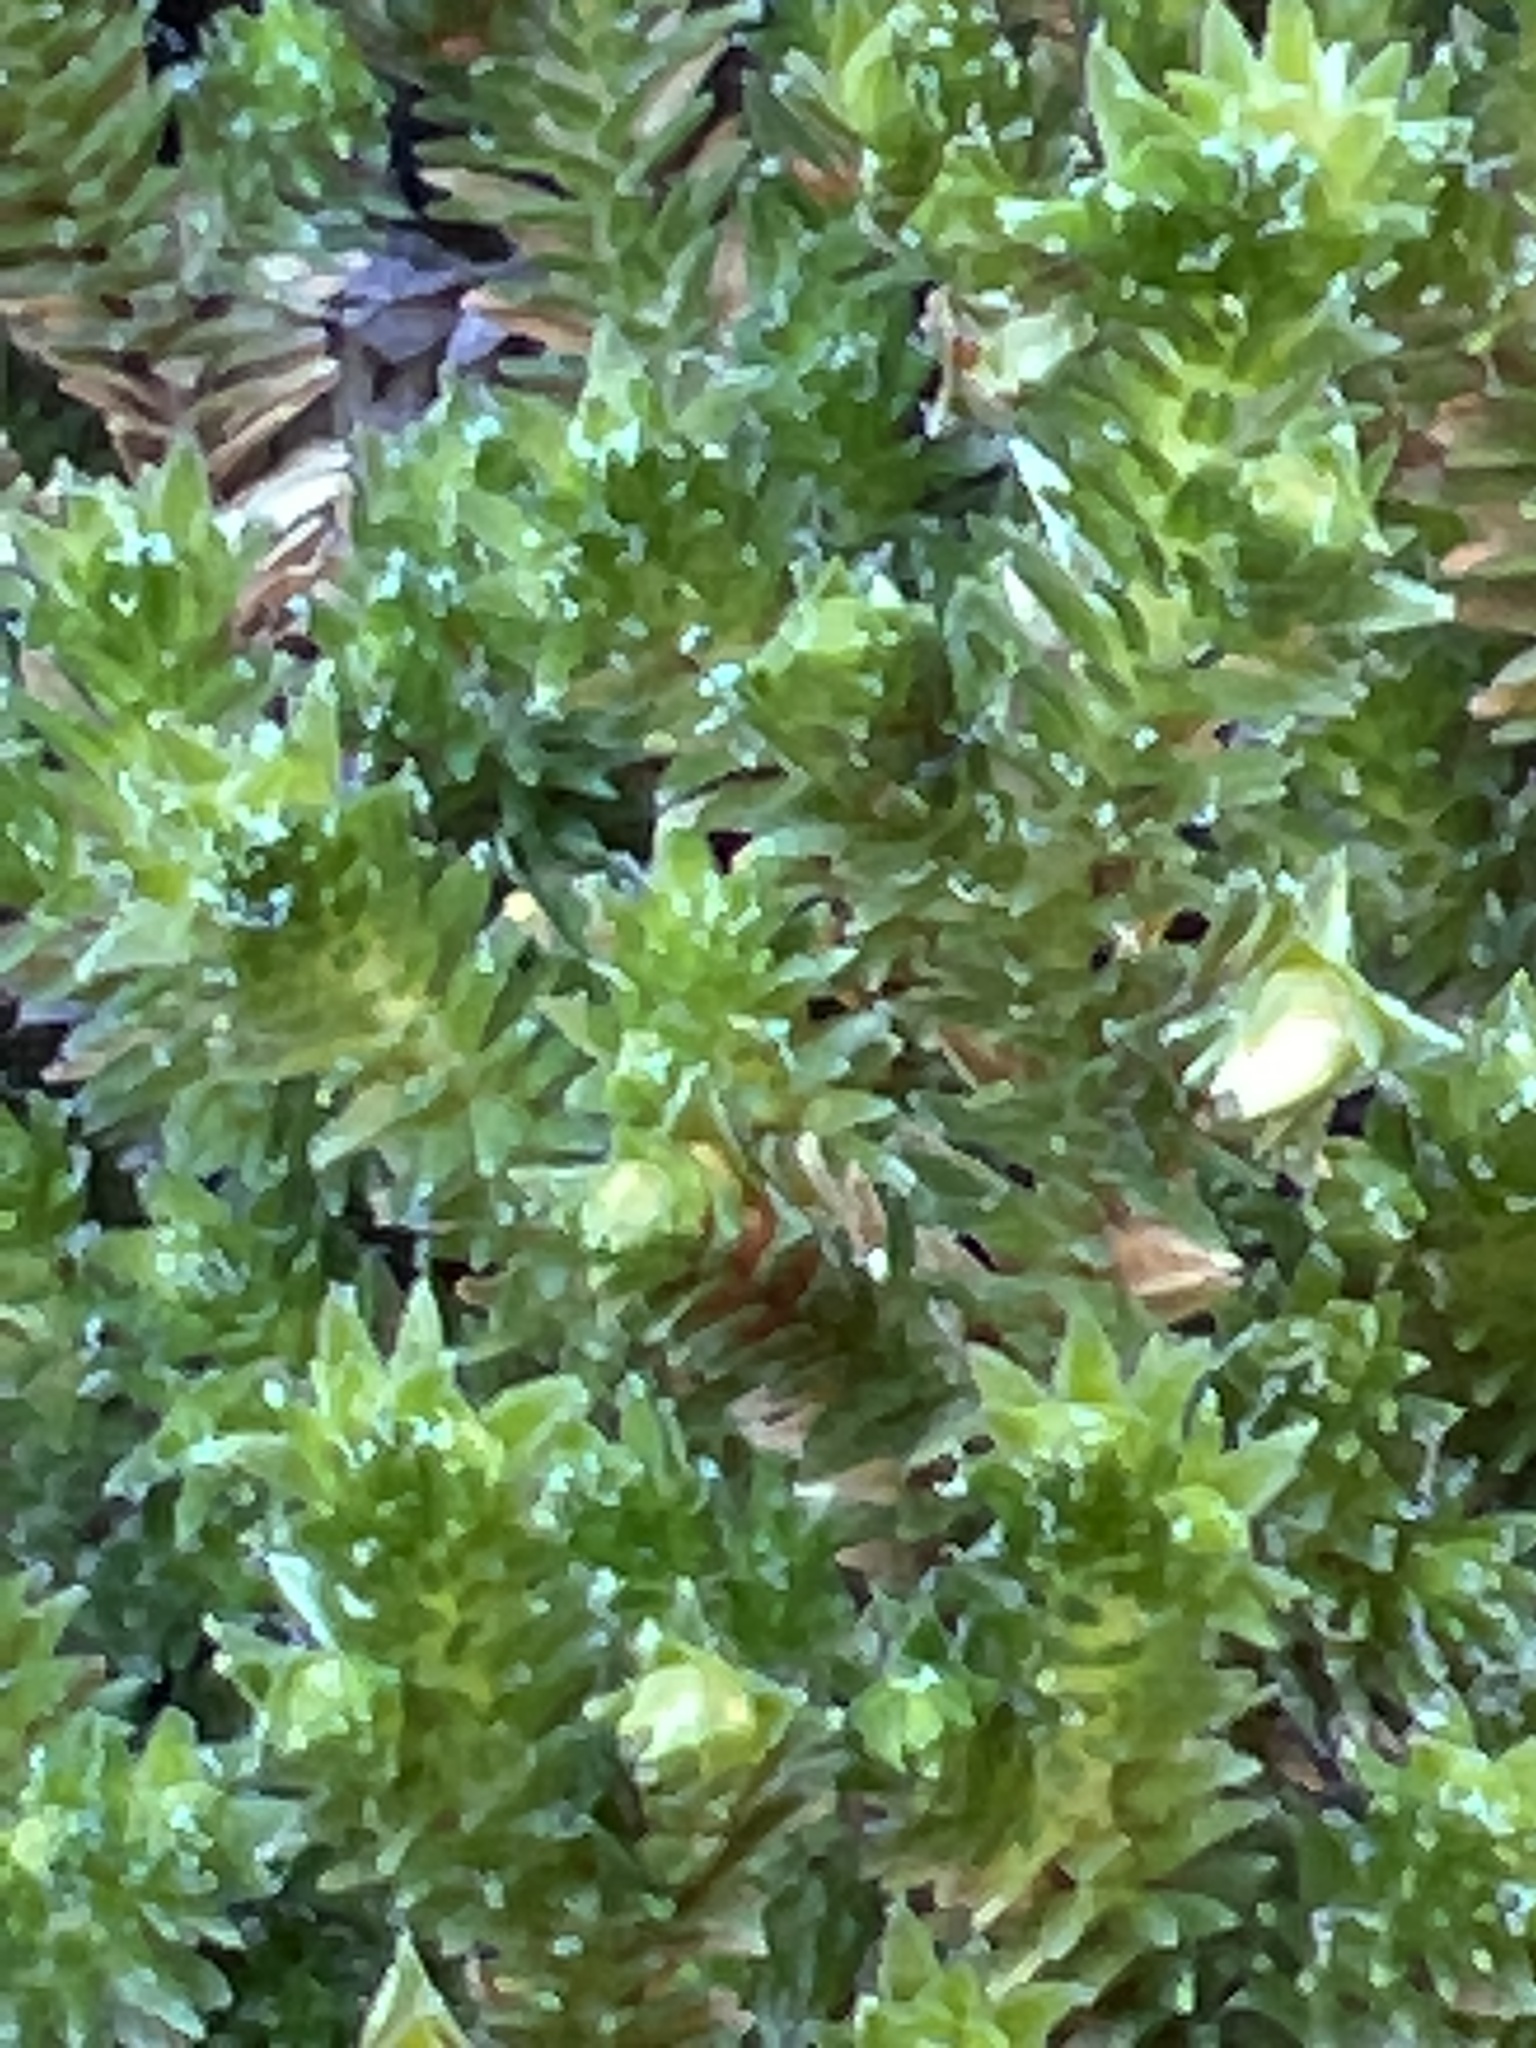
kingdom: Plantae
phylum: Tracheophyta
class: Lycopodiopsida
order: Selaginellales
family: Selaginellaceae
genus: Selaginella
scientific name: Selaginella eremophila
